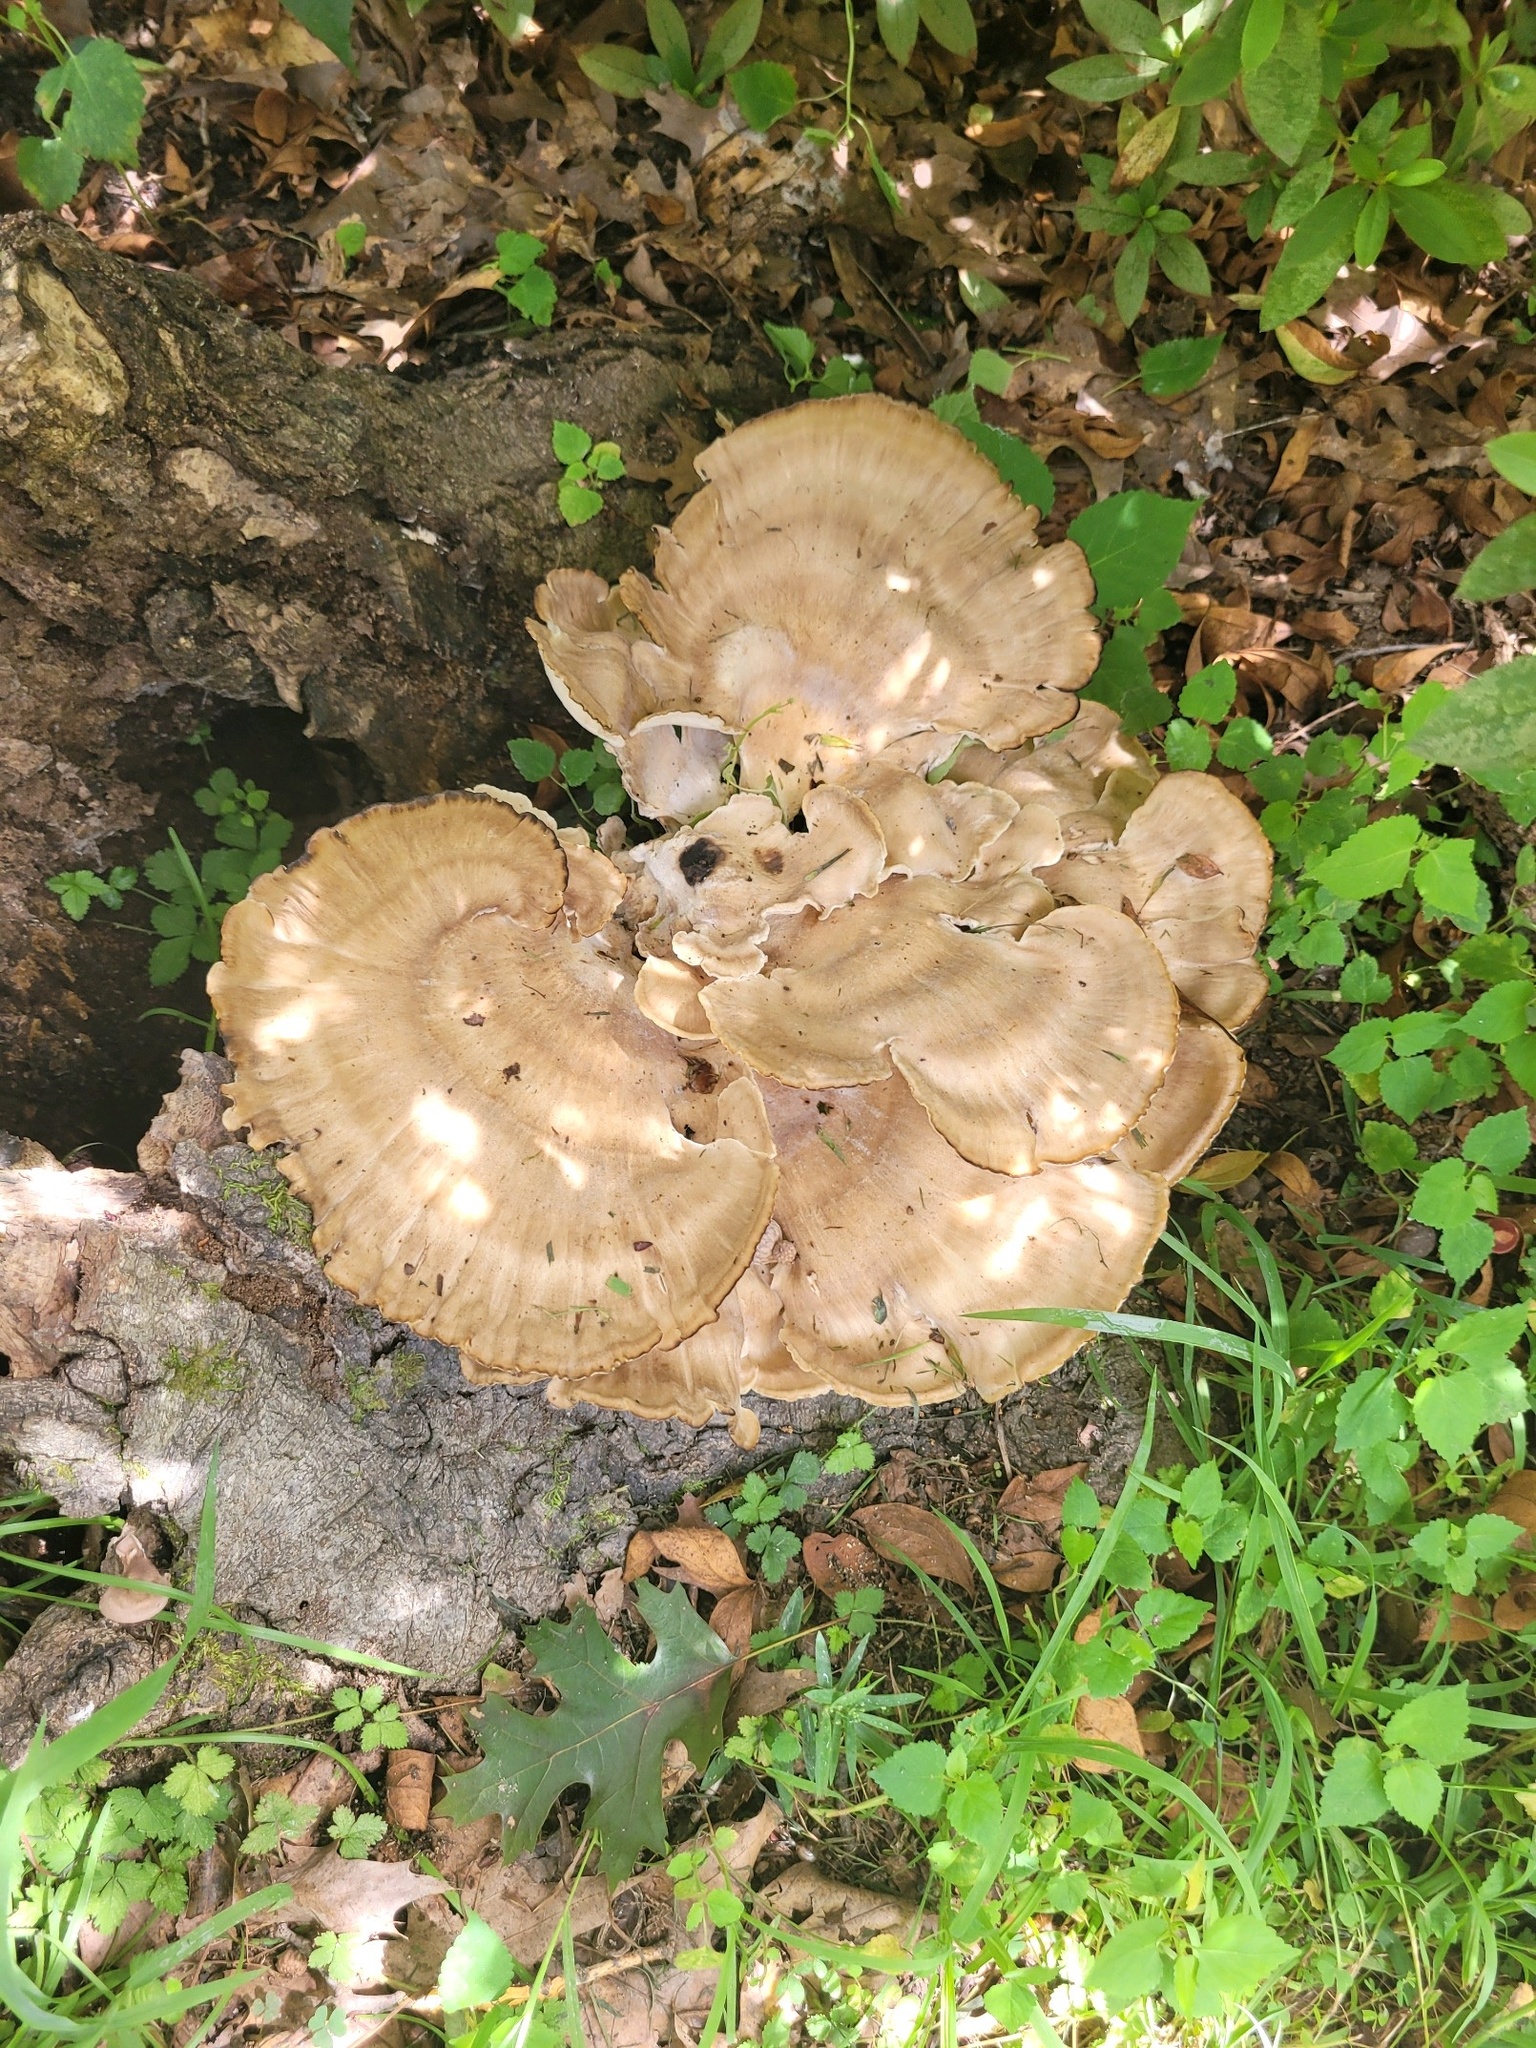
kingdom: Fungi
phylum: Basidiomycota
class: Agaricomycetes
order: Polyporales
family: Meripilaceae
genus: Meripilus
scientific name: Meripilus sumstinei
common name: Black-staining polypore
